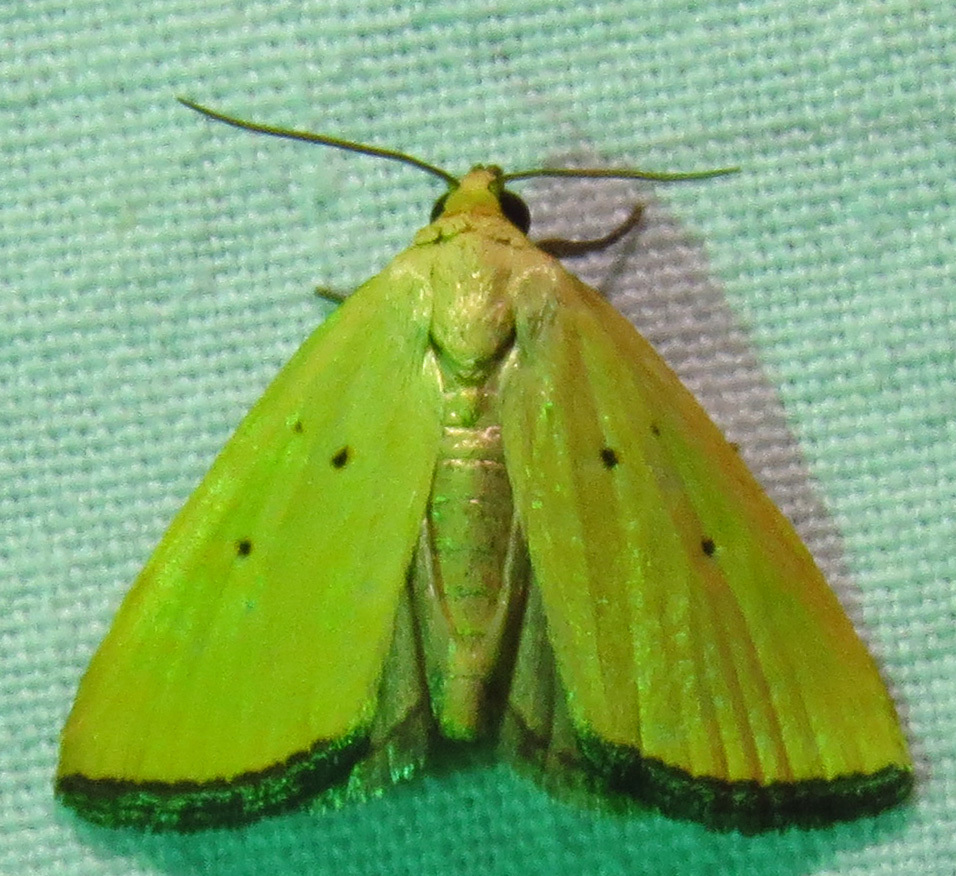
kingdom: Animalia
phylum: Arthropoda
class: Insecta
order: Lepidoptera
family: Noctuidae
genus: Marimatha
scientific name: Marimatha nigrofimbria
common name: Black-bordered lemon moth
